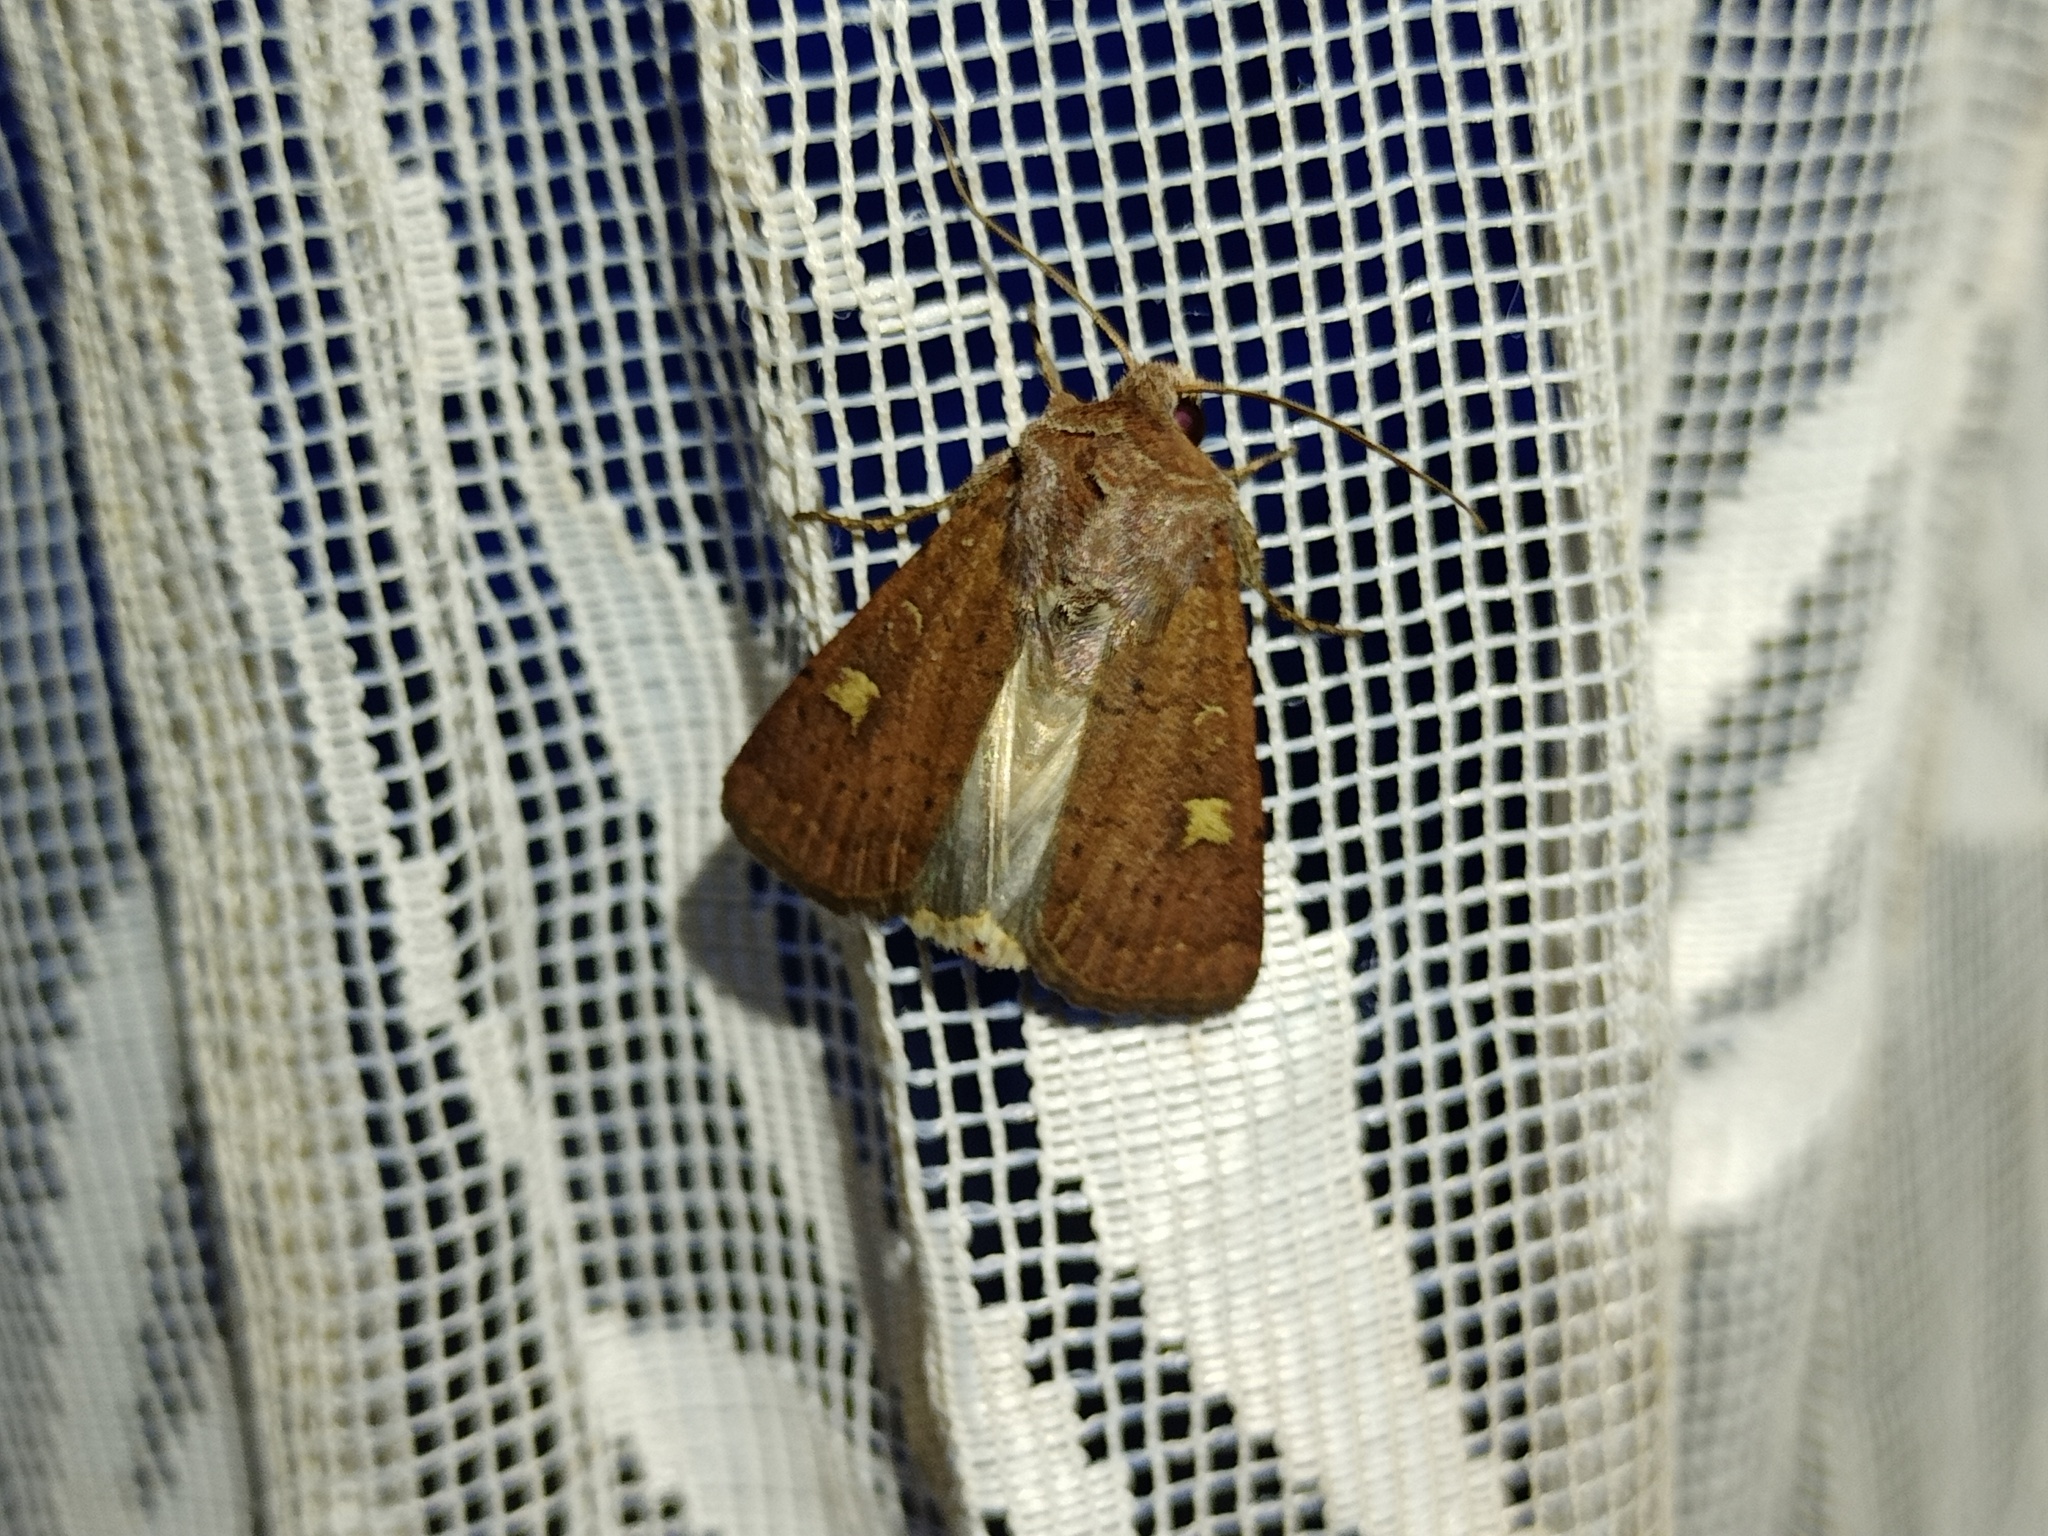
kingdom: Animalia
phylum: Arthropoda
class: Insecta
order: Lepidoptera
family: Noctuidae
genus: Xestia
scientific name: Xestia xanthographa
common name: Square-spot rustic
